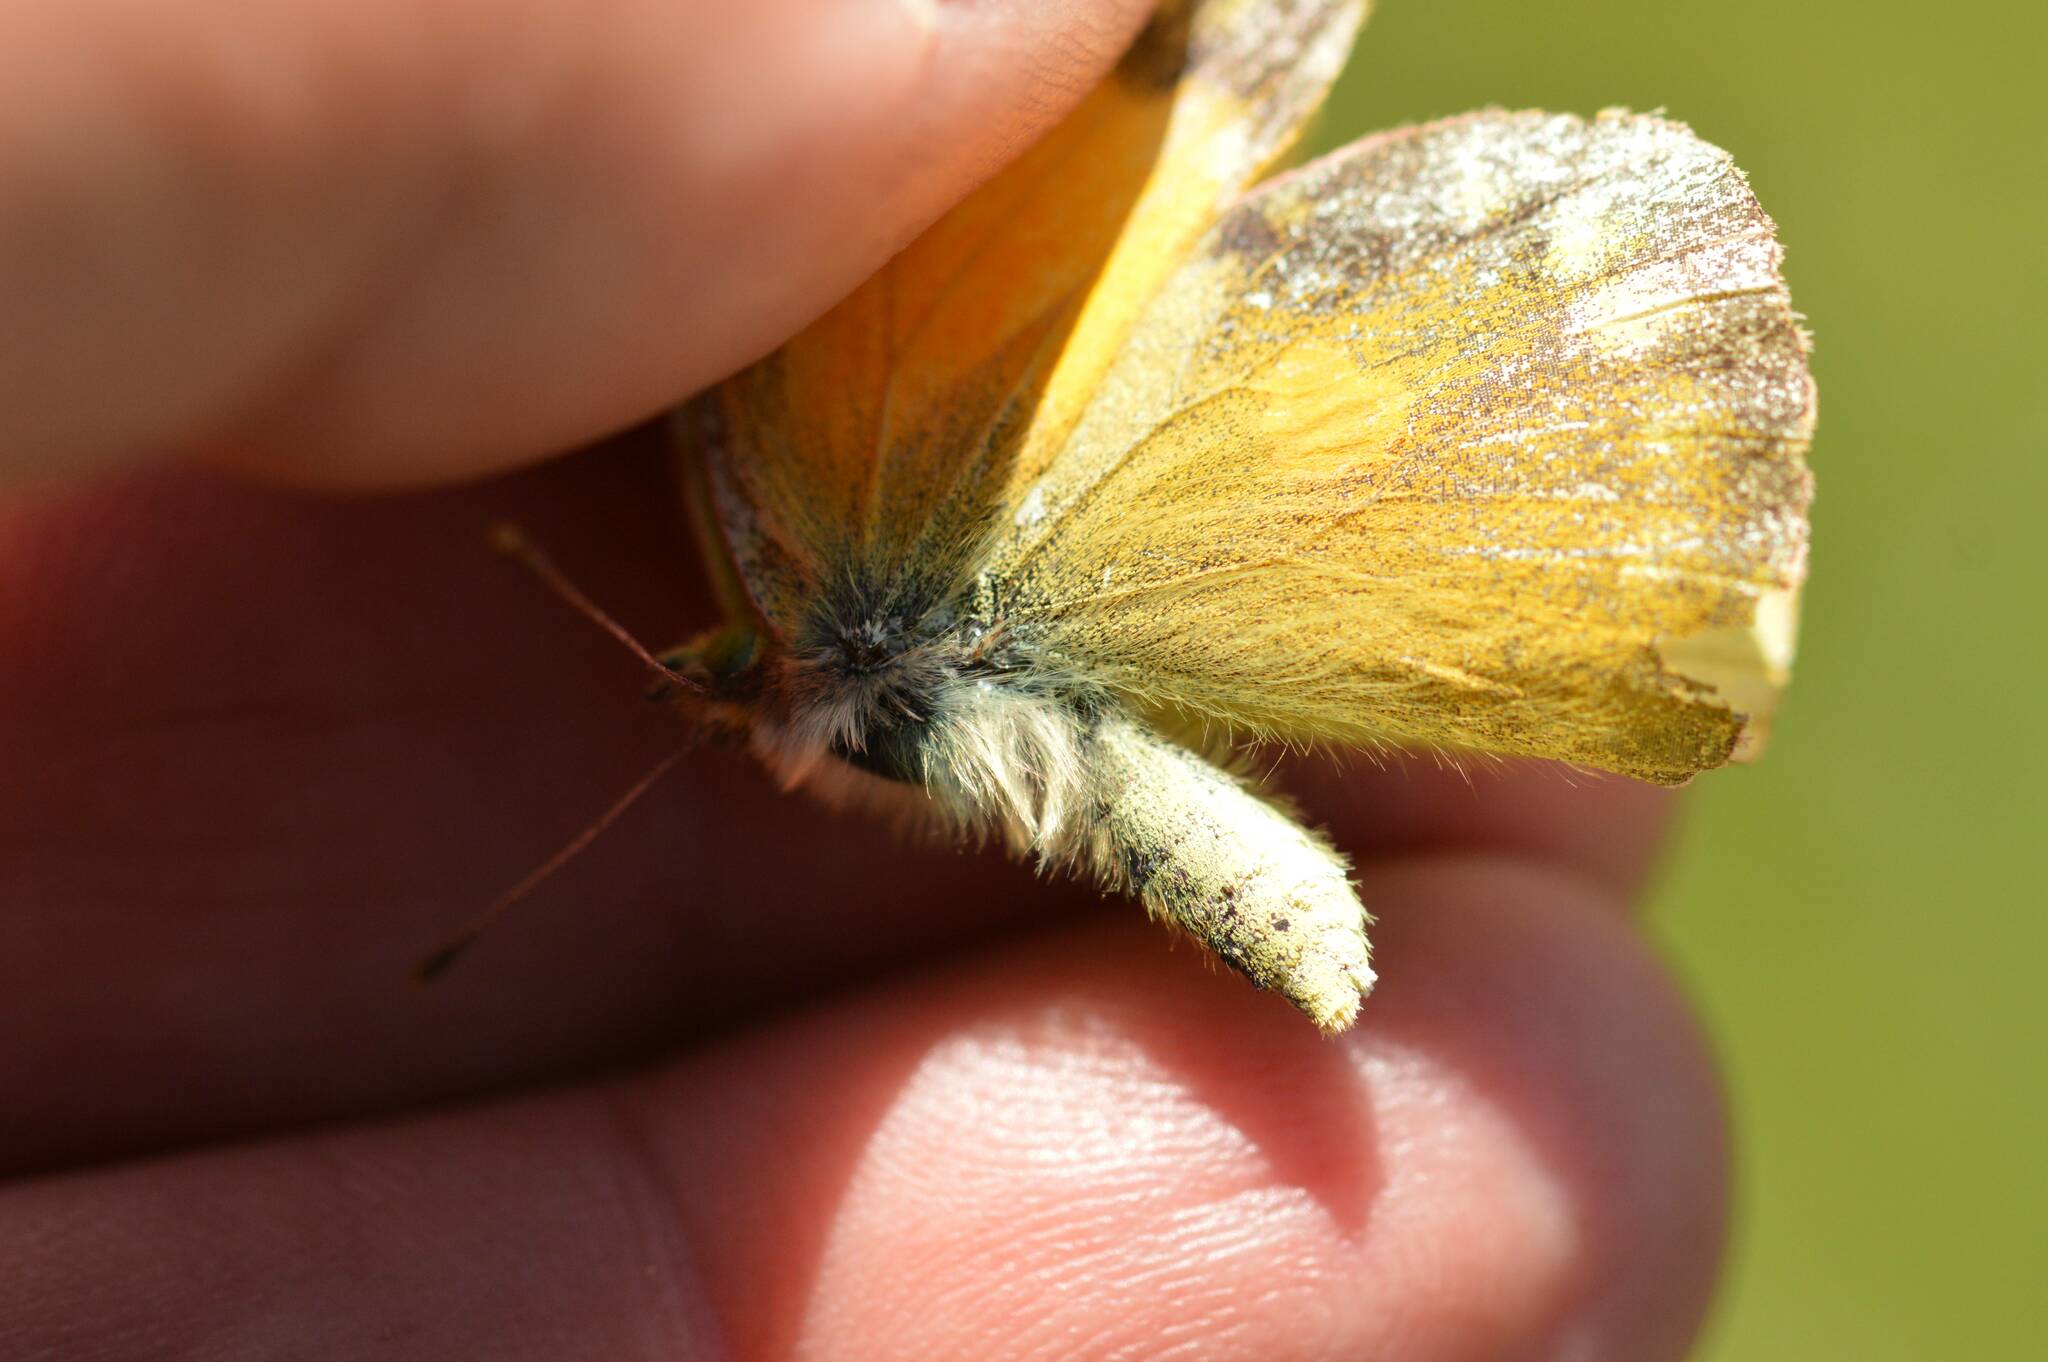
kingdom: Animalia
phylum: Arthropoda
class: Insecta
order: Lepidoptera
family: Pieridae
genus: Colias
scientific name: Colias croceus
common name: Clouded yellow
